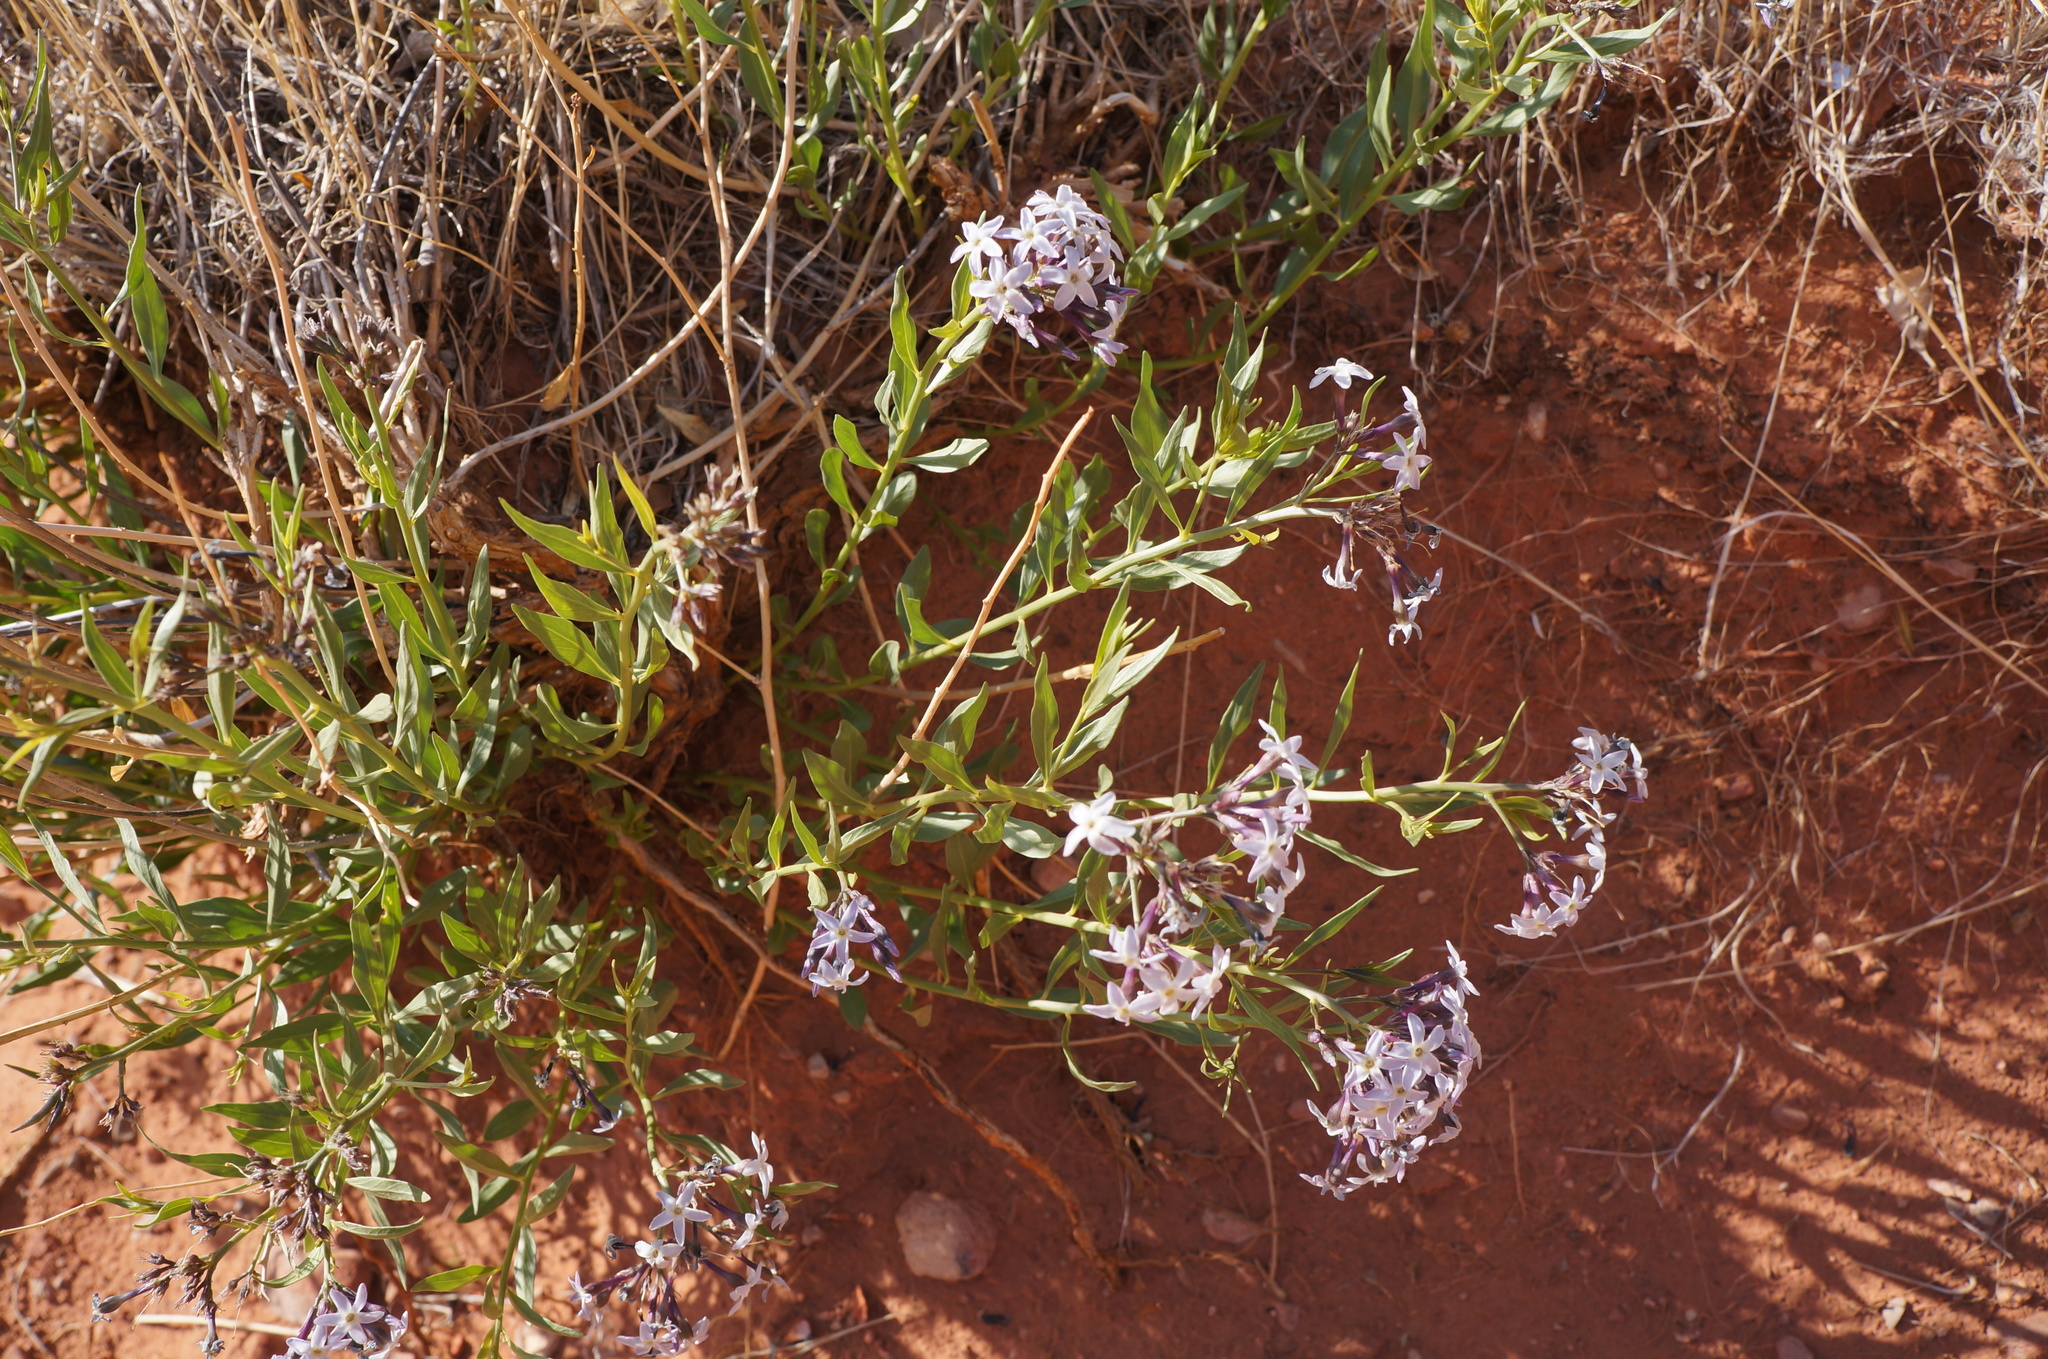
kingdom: Plantae
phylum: Tracheophyta
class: Magnoliopsida
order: Gentianales
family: Apocynaceae
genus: Amsonia
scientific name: Amsonia tomentosa
